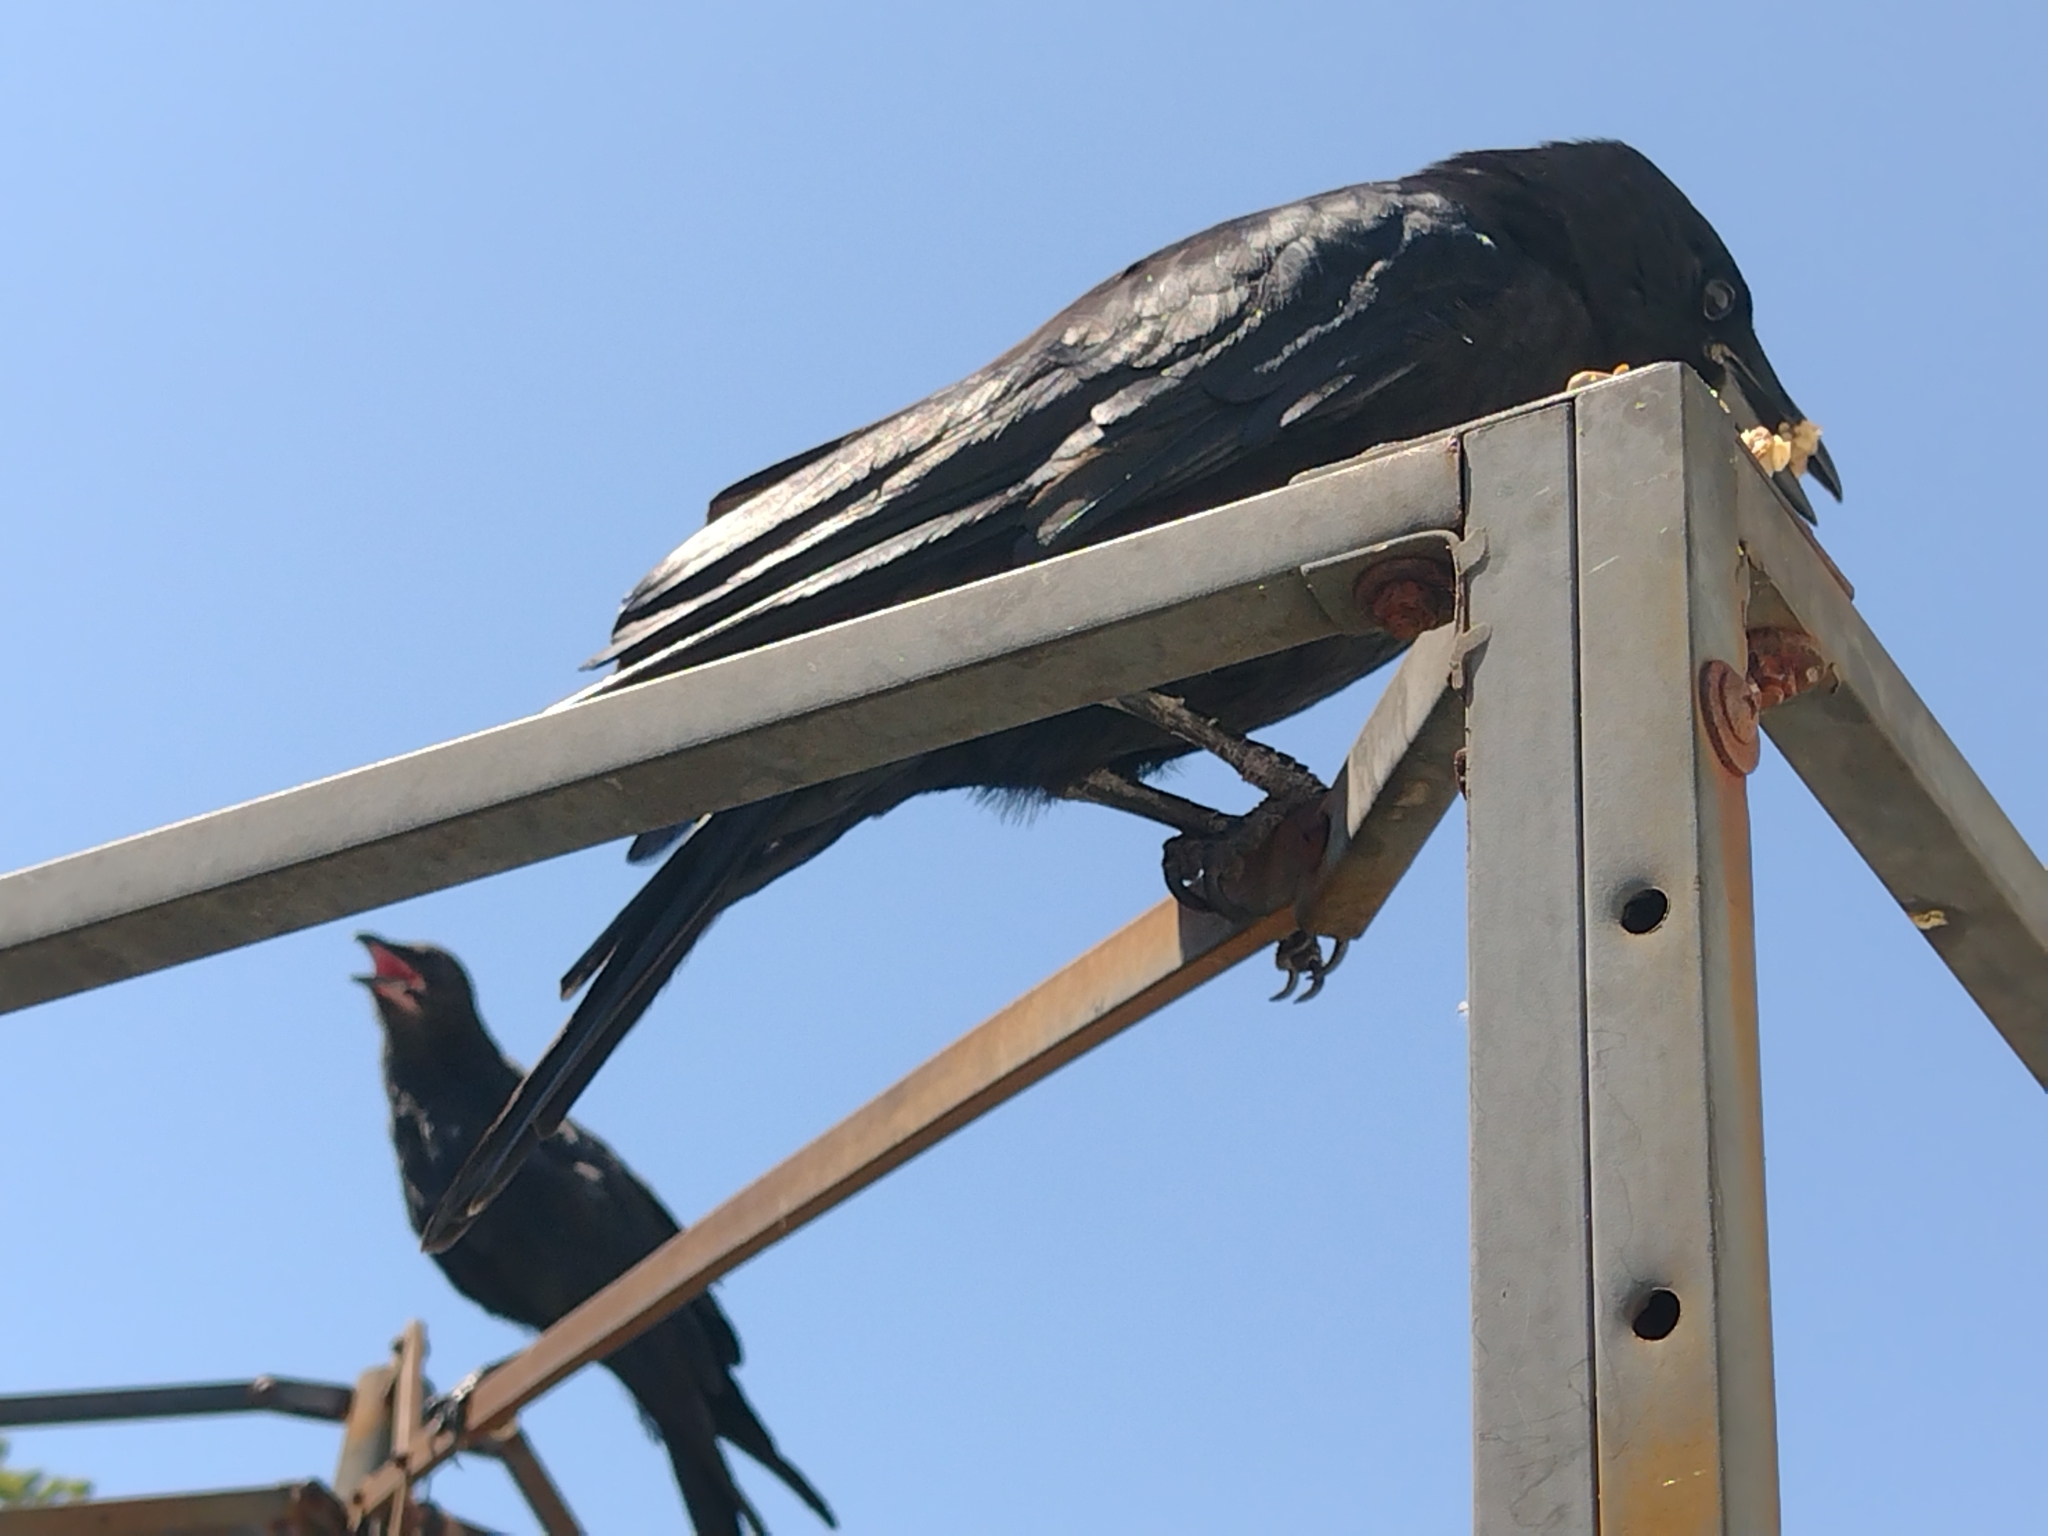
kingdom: Animalia
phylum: Chordata
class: Aves
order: Passeriformes
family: Corvidae
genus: Corvus
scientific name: Corvus brachyrhynchos
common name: American crow
